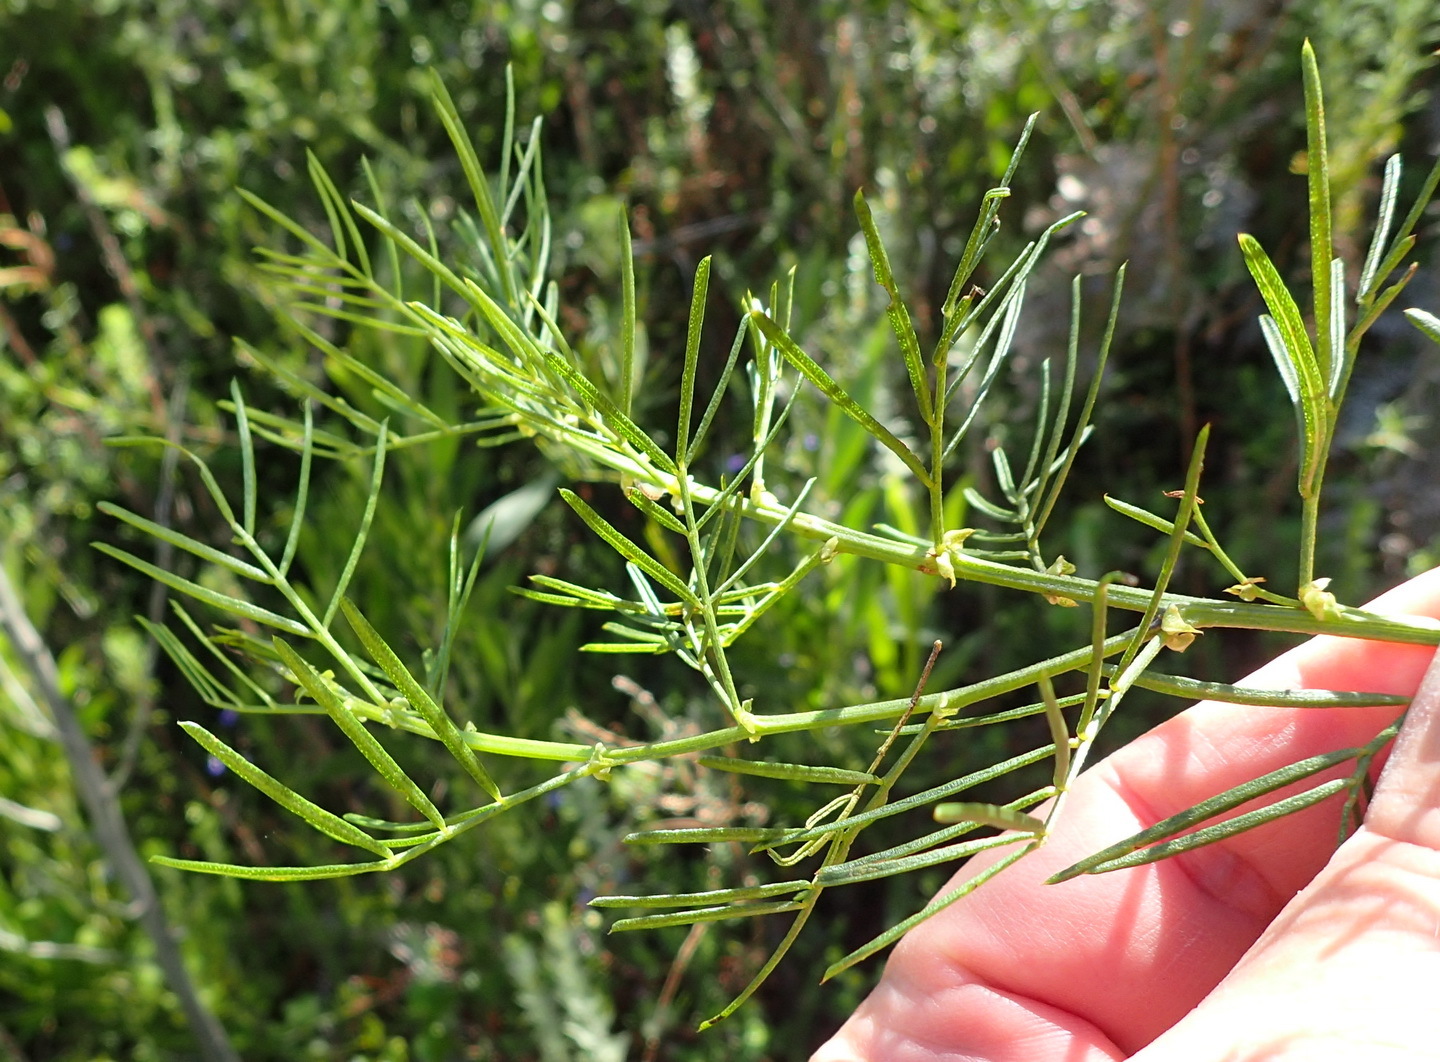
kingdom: Plantae
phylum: Tracheophyta
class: Magnoliopsida
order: Fabales
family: Fabaceae
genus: Psoralea
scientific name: Psoralea arborea
